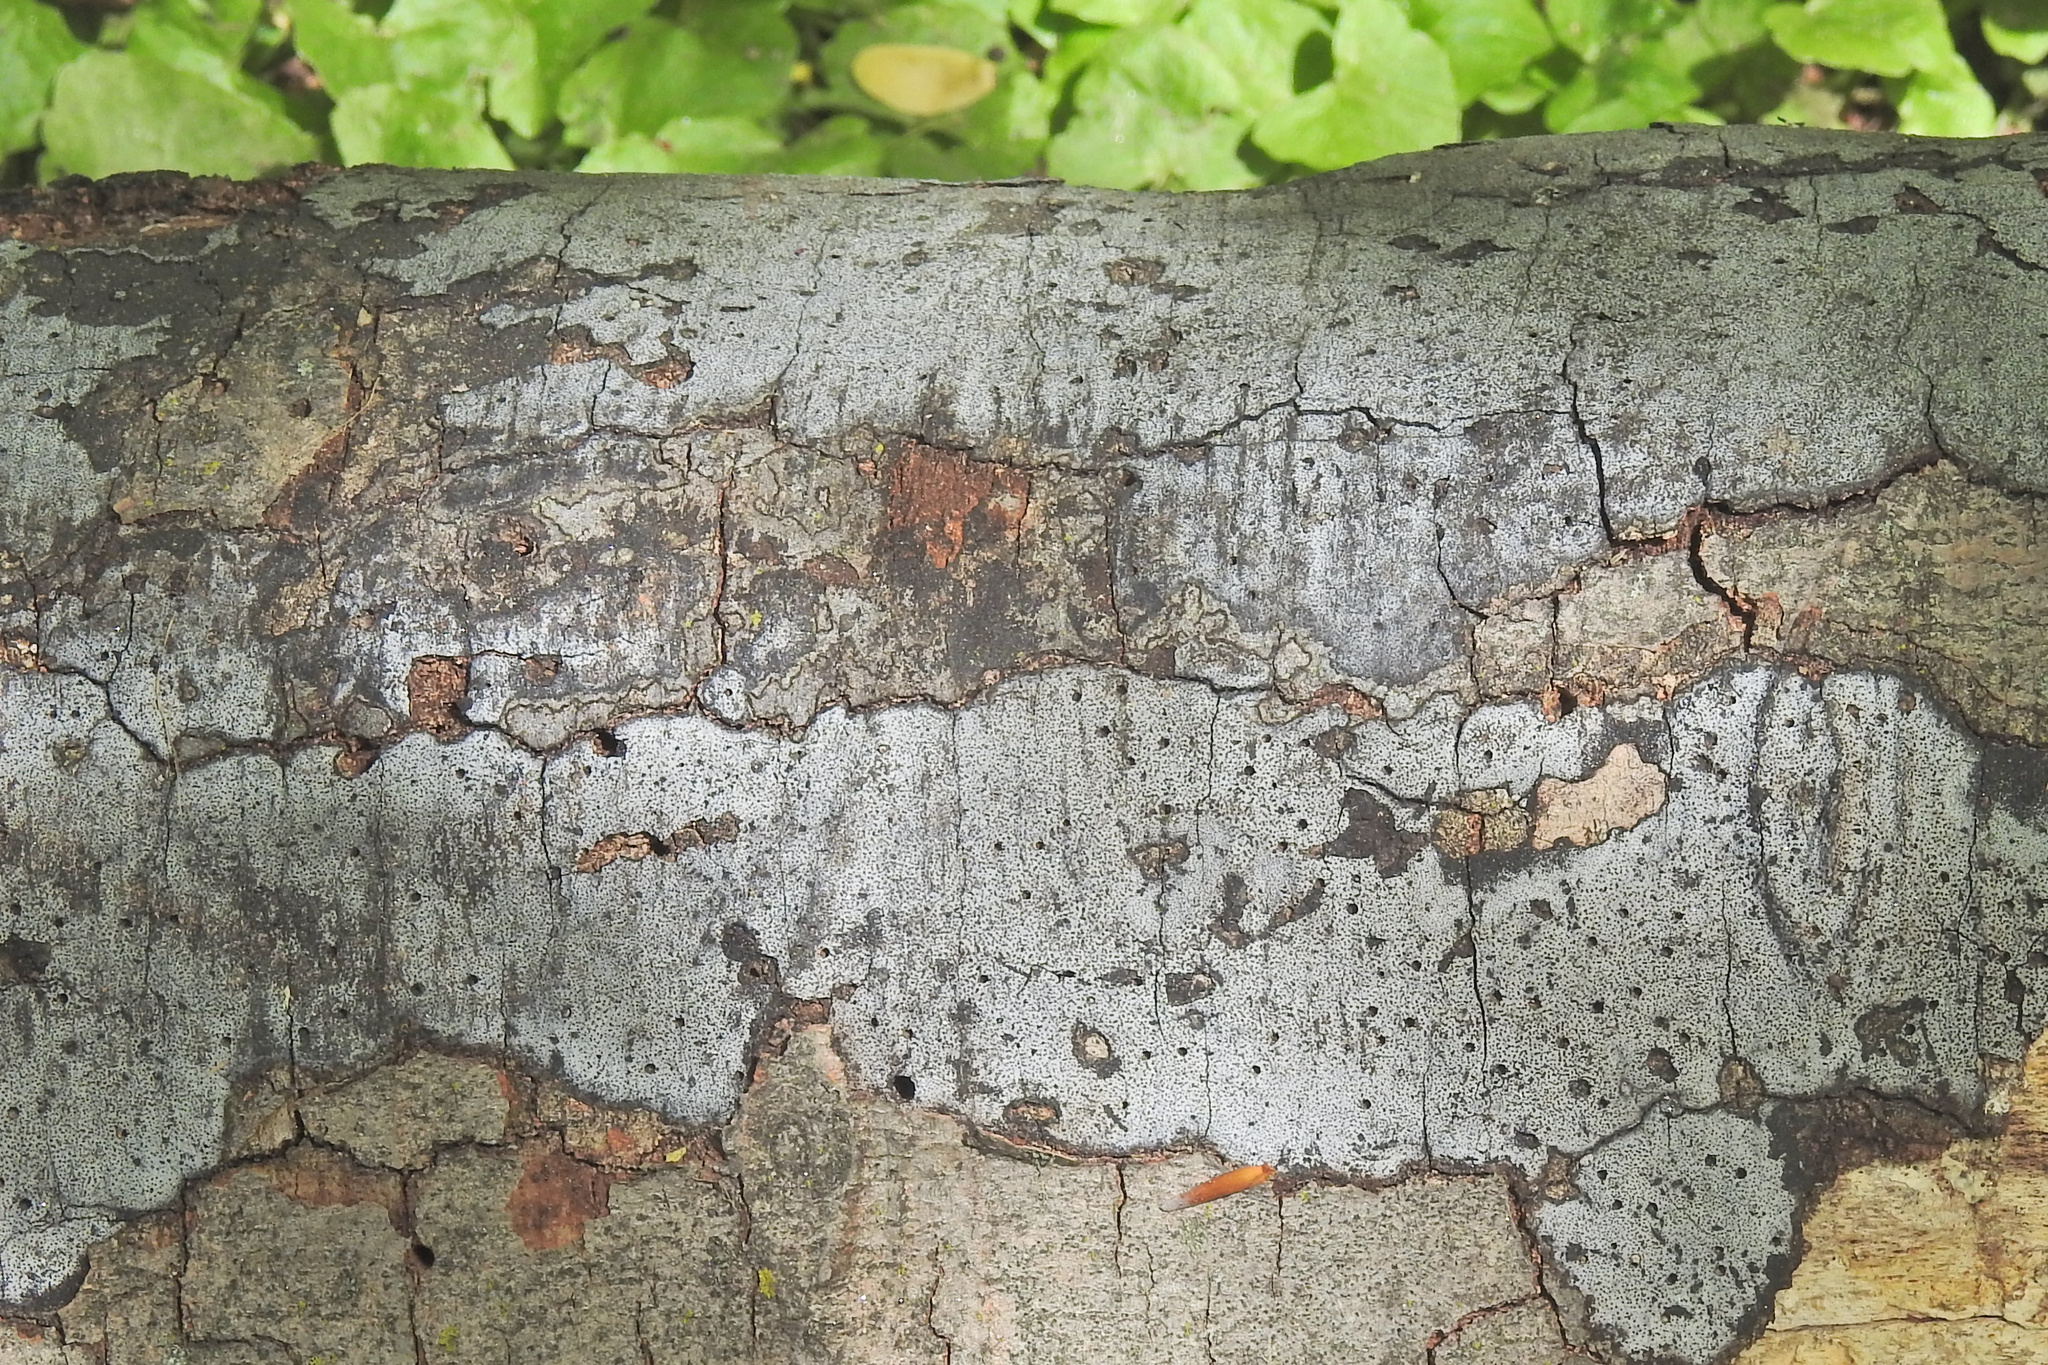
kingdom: Fungi
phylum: Ascomycota
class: Sordariomycetes
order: Xylariales
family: Graphostromataceae
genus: Biscogniauxia
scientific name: Biscogniauxia atropunctata
